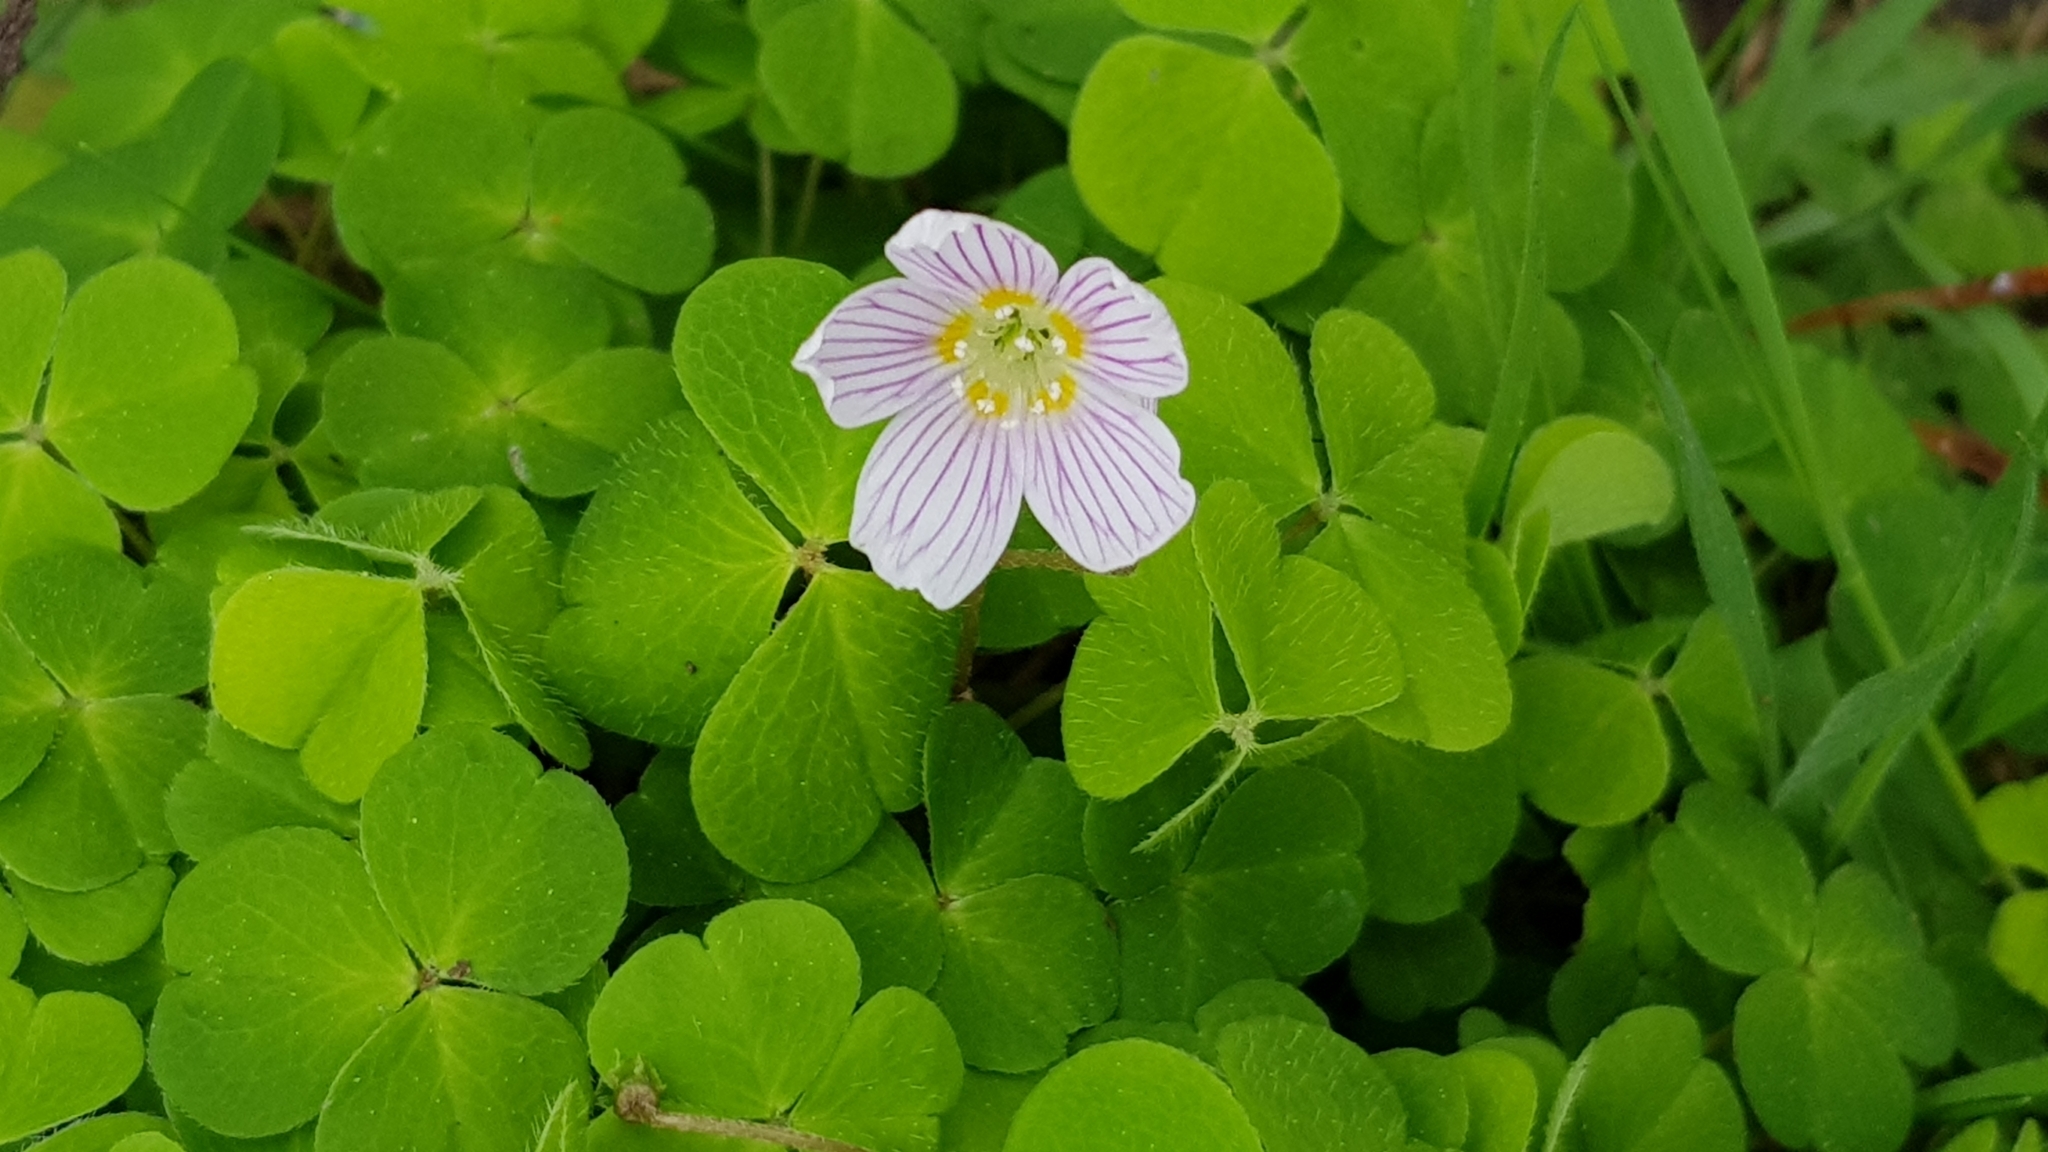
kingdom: Plantae
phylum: Tracheophyta
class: Magnoliopsida
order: Oxalidales
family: Oxalidaceae
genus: Oxalis
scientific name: Oxalis acetosella
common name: Wood-sorrel
